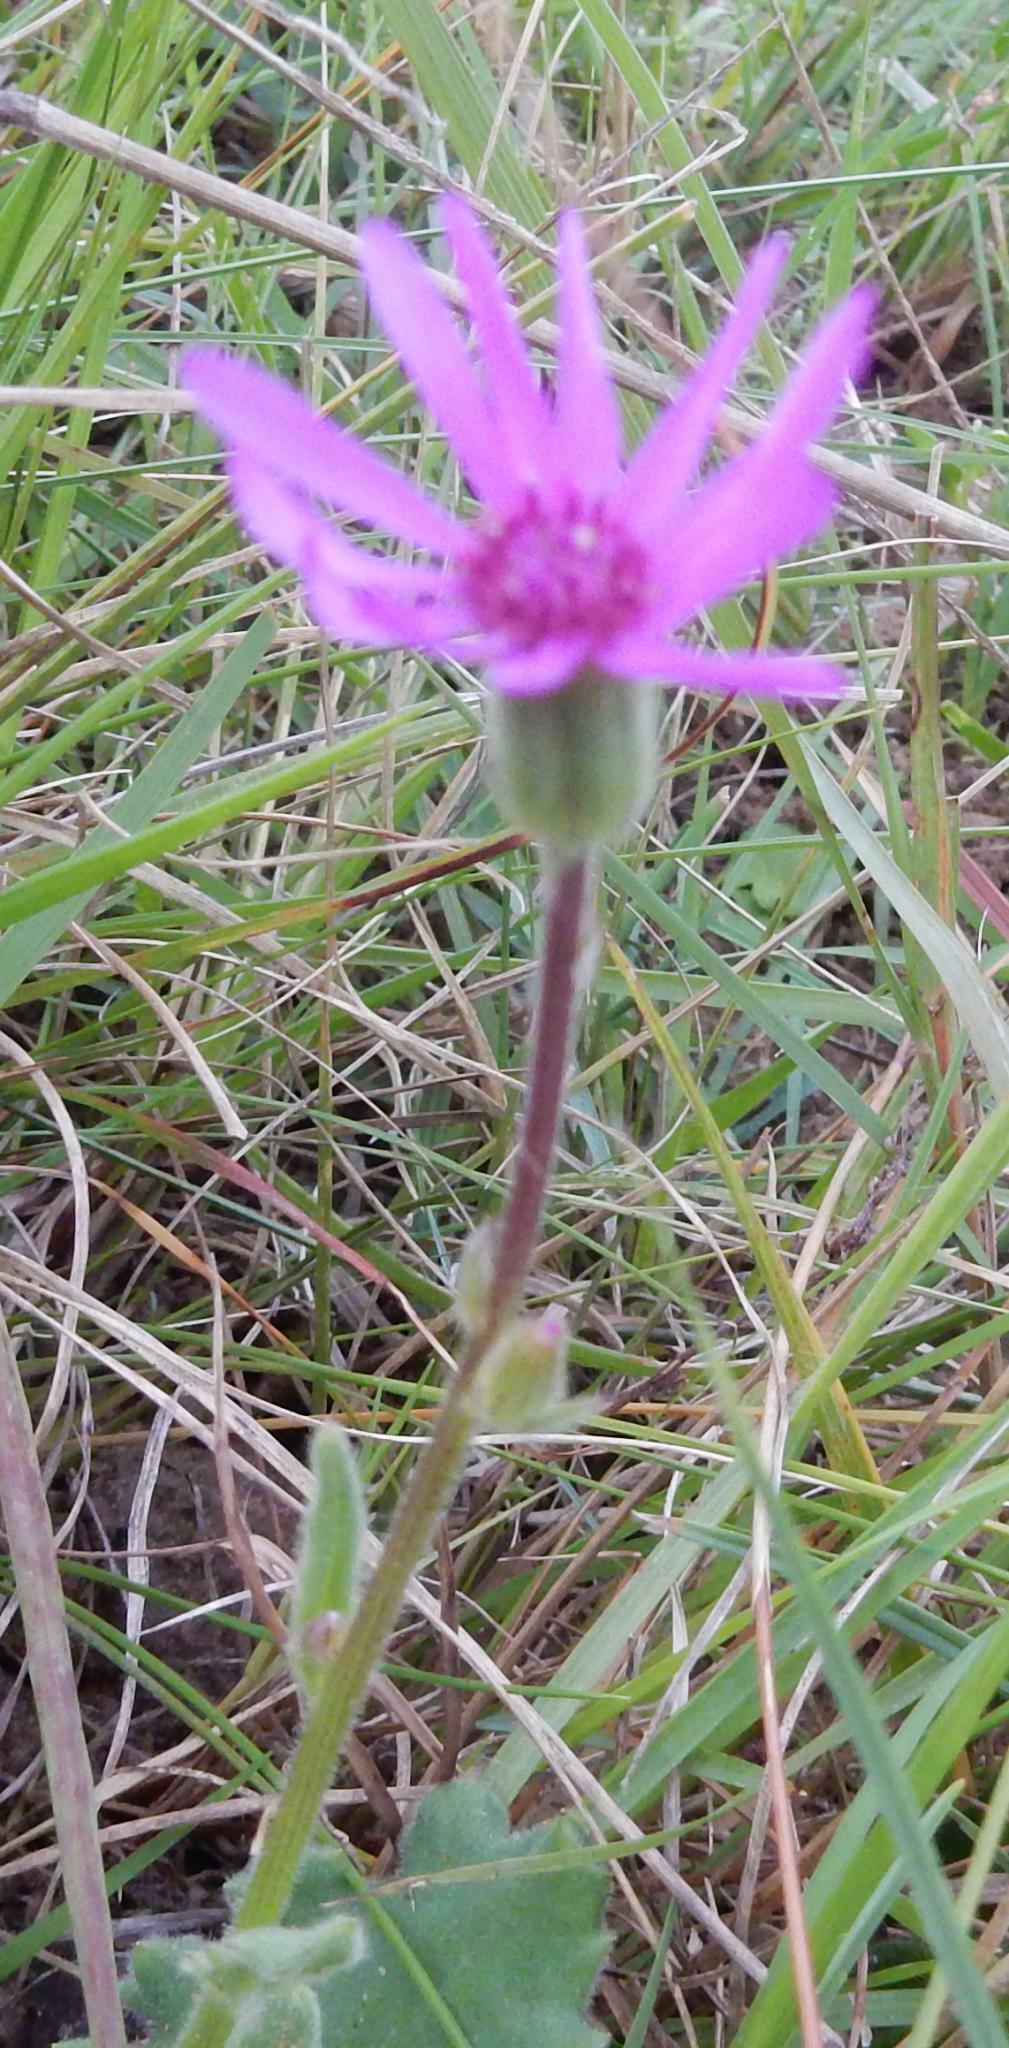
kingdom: Plantae
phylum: Tracheophyta
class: Magnoliopsida
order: Asterales
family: Asteraceae
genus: Senecio
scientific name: Senecio speciosus
